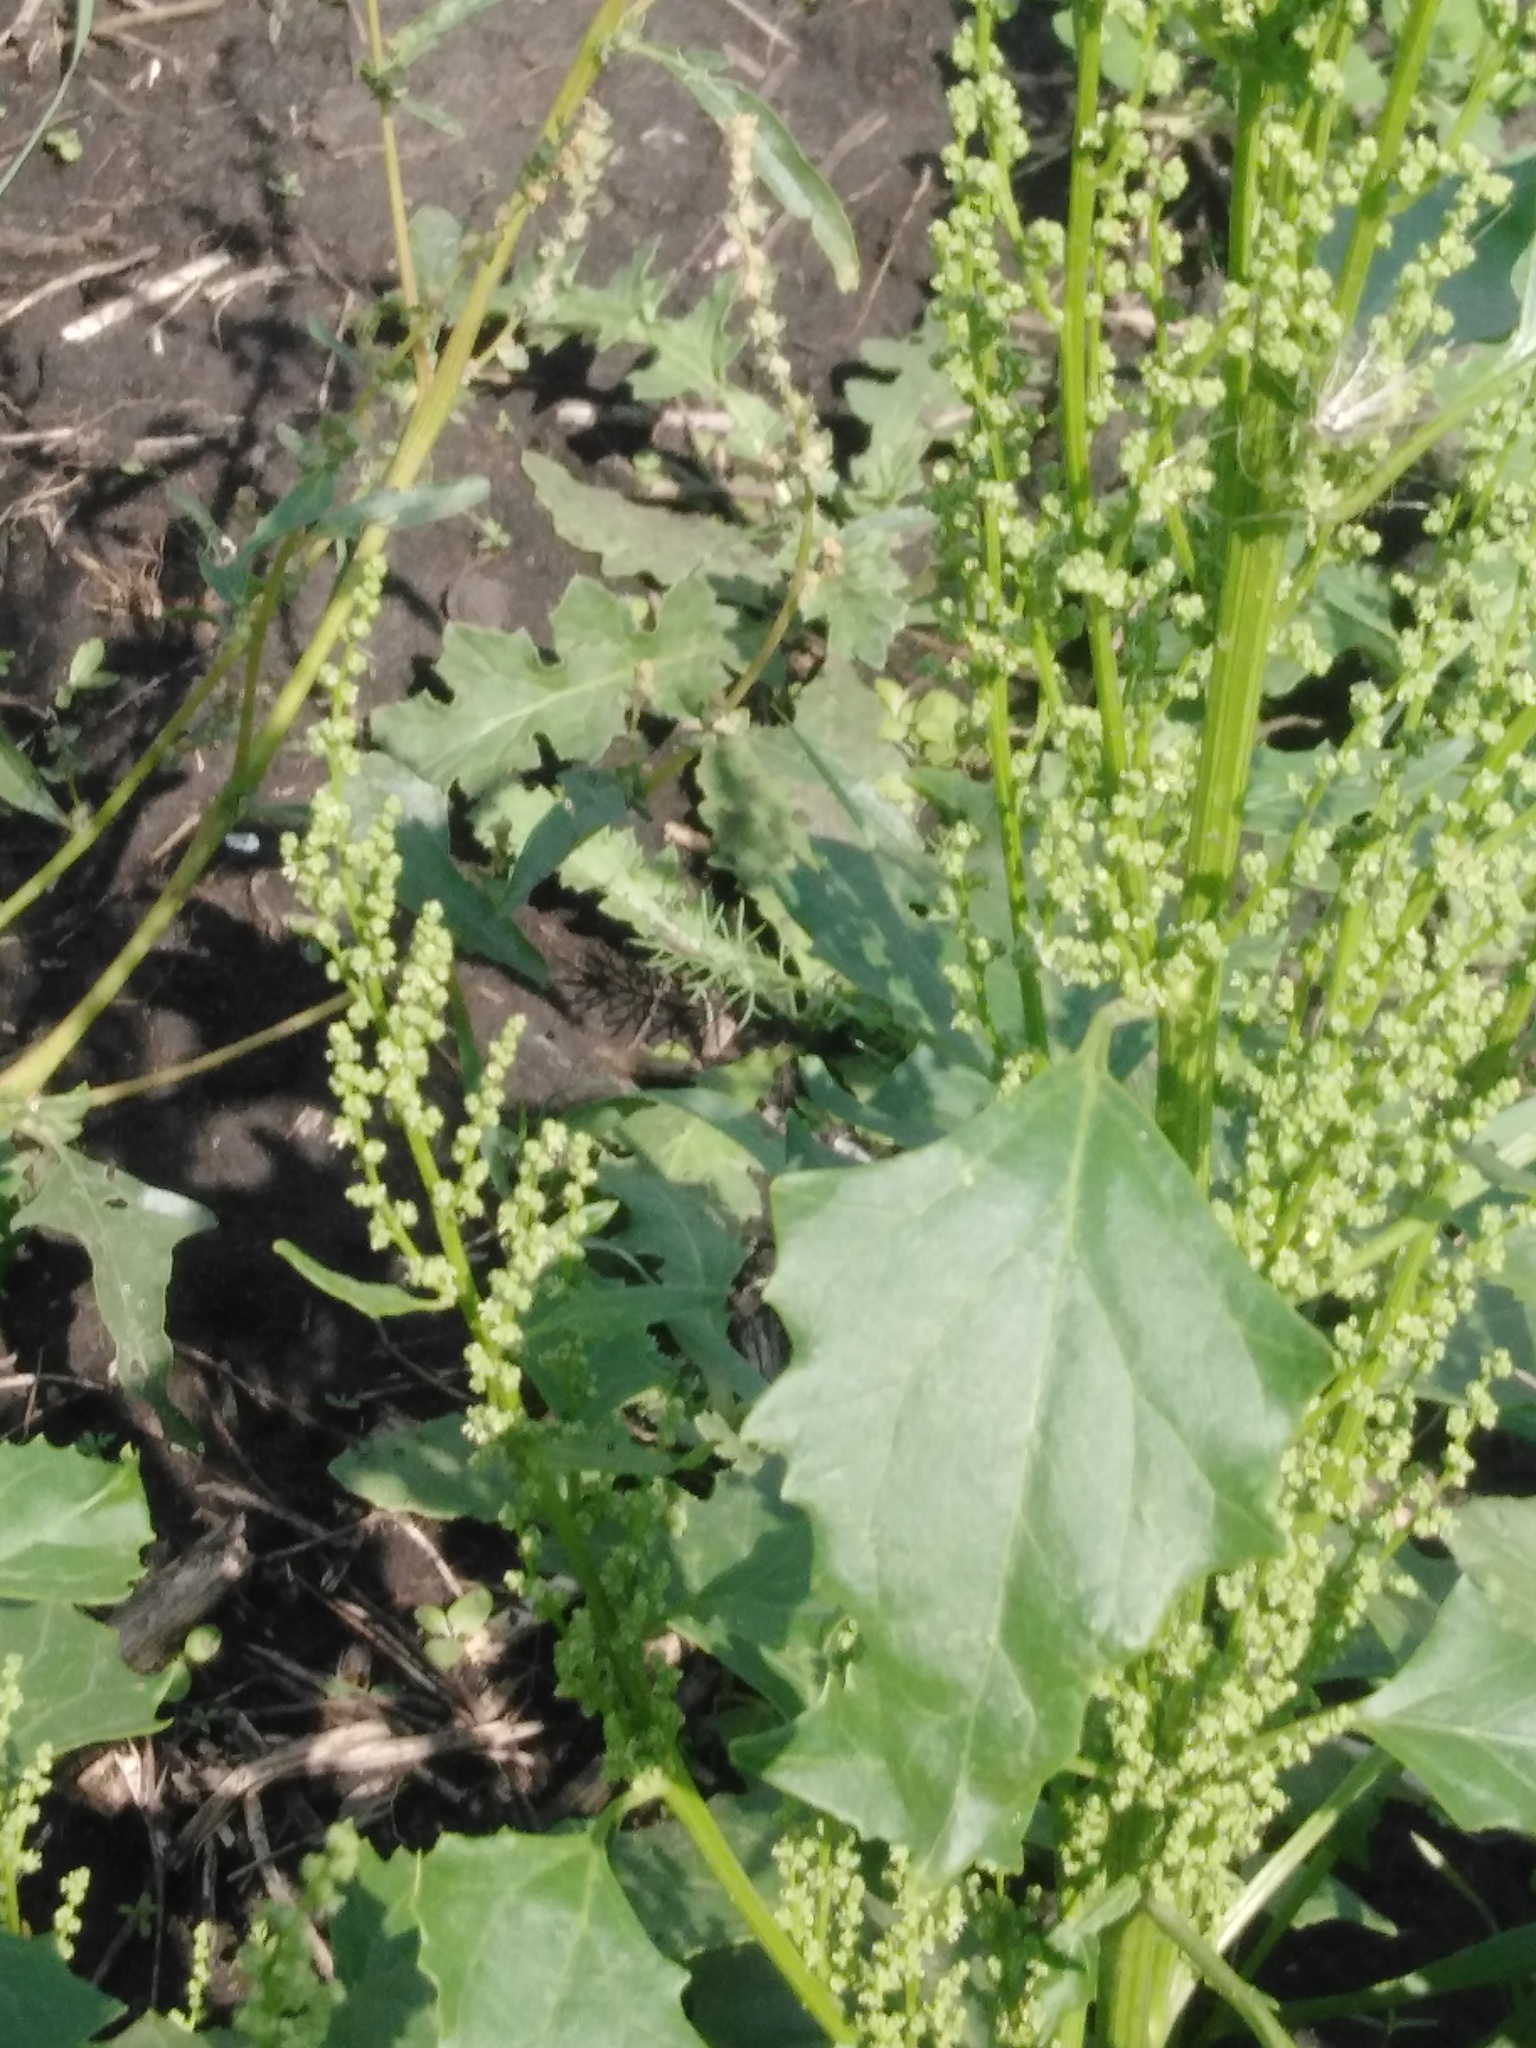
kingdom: Plantae
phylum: Tracheophyta
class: Magnoliopsida
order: Caryophyllales
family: Amaranthaceae
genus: Oxybasis
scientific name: Oxybasis urbica
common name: City goosefoot
